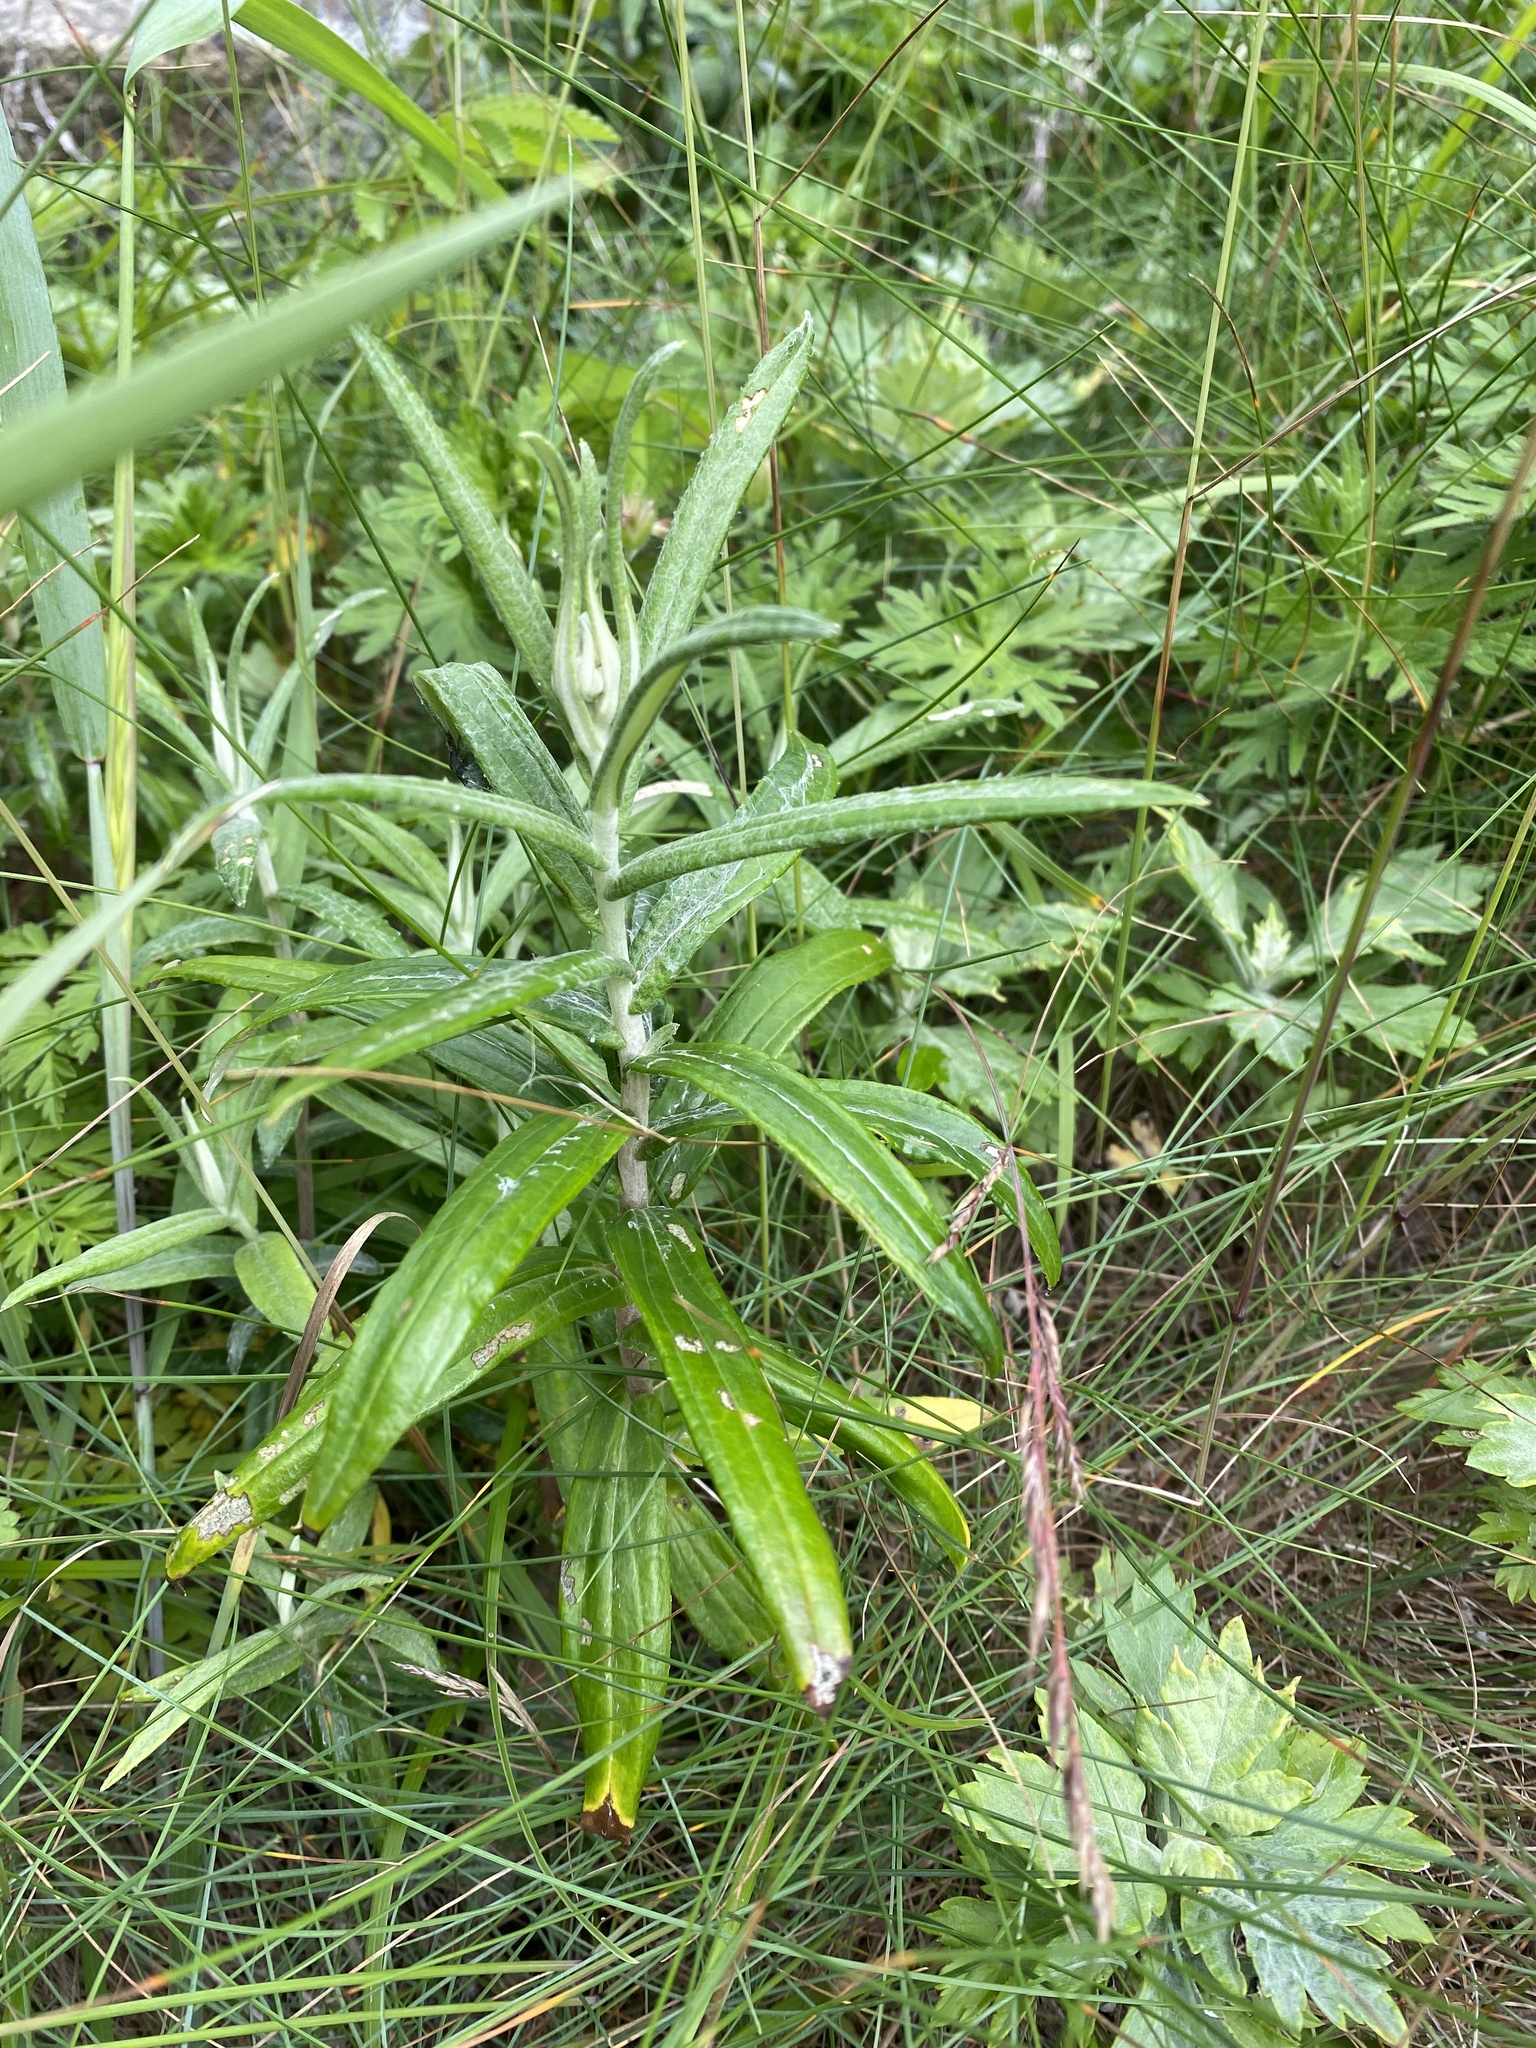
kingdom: Plantae
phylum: Tracheophyta
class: Magnoliopsida
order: Asterales
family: Asteraceae
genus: Anaphalis
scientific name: Anaphalis margaritacea
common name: Pearly everlasting
